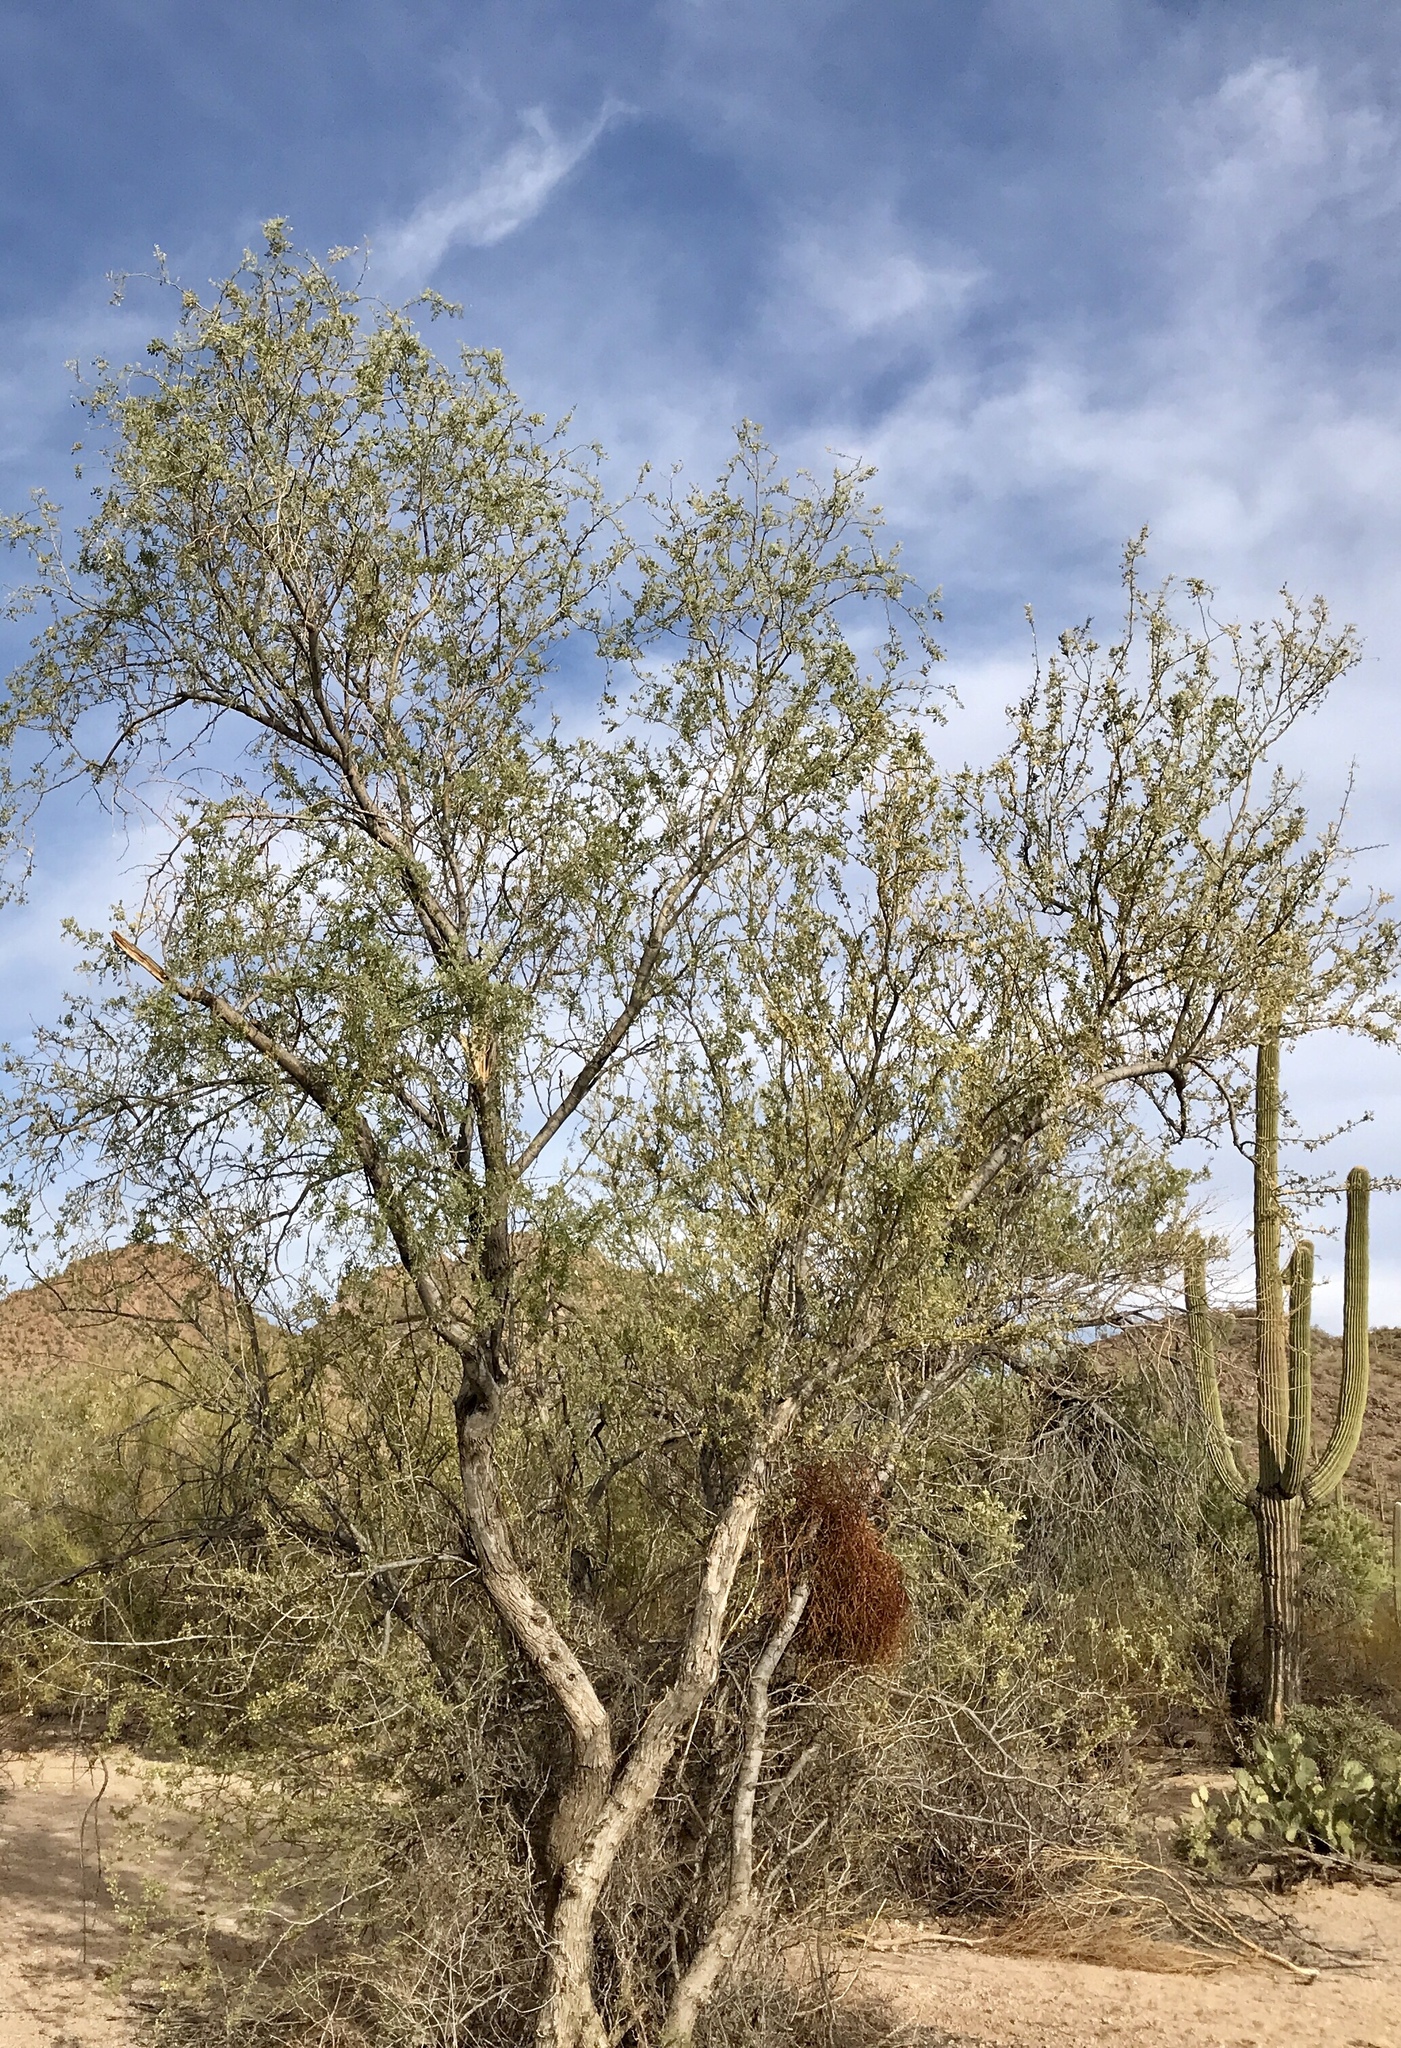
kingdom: Plantae
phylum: Tracheophyta
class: Magnoliopsida
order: Fabales
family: Fabaceae
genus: Olneya
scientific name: Olneya tesota
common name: Desert ironwood
